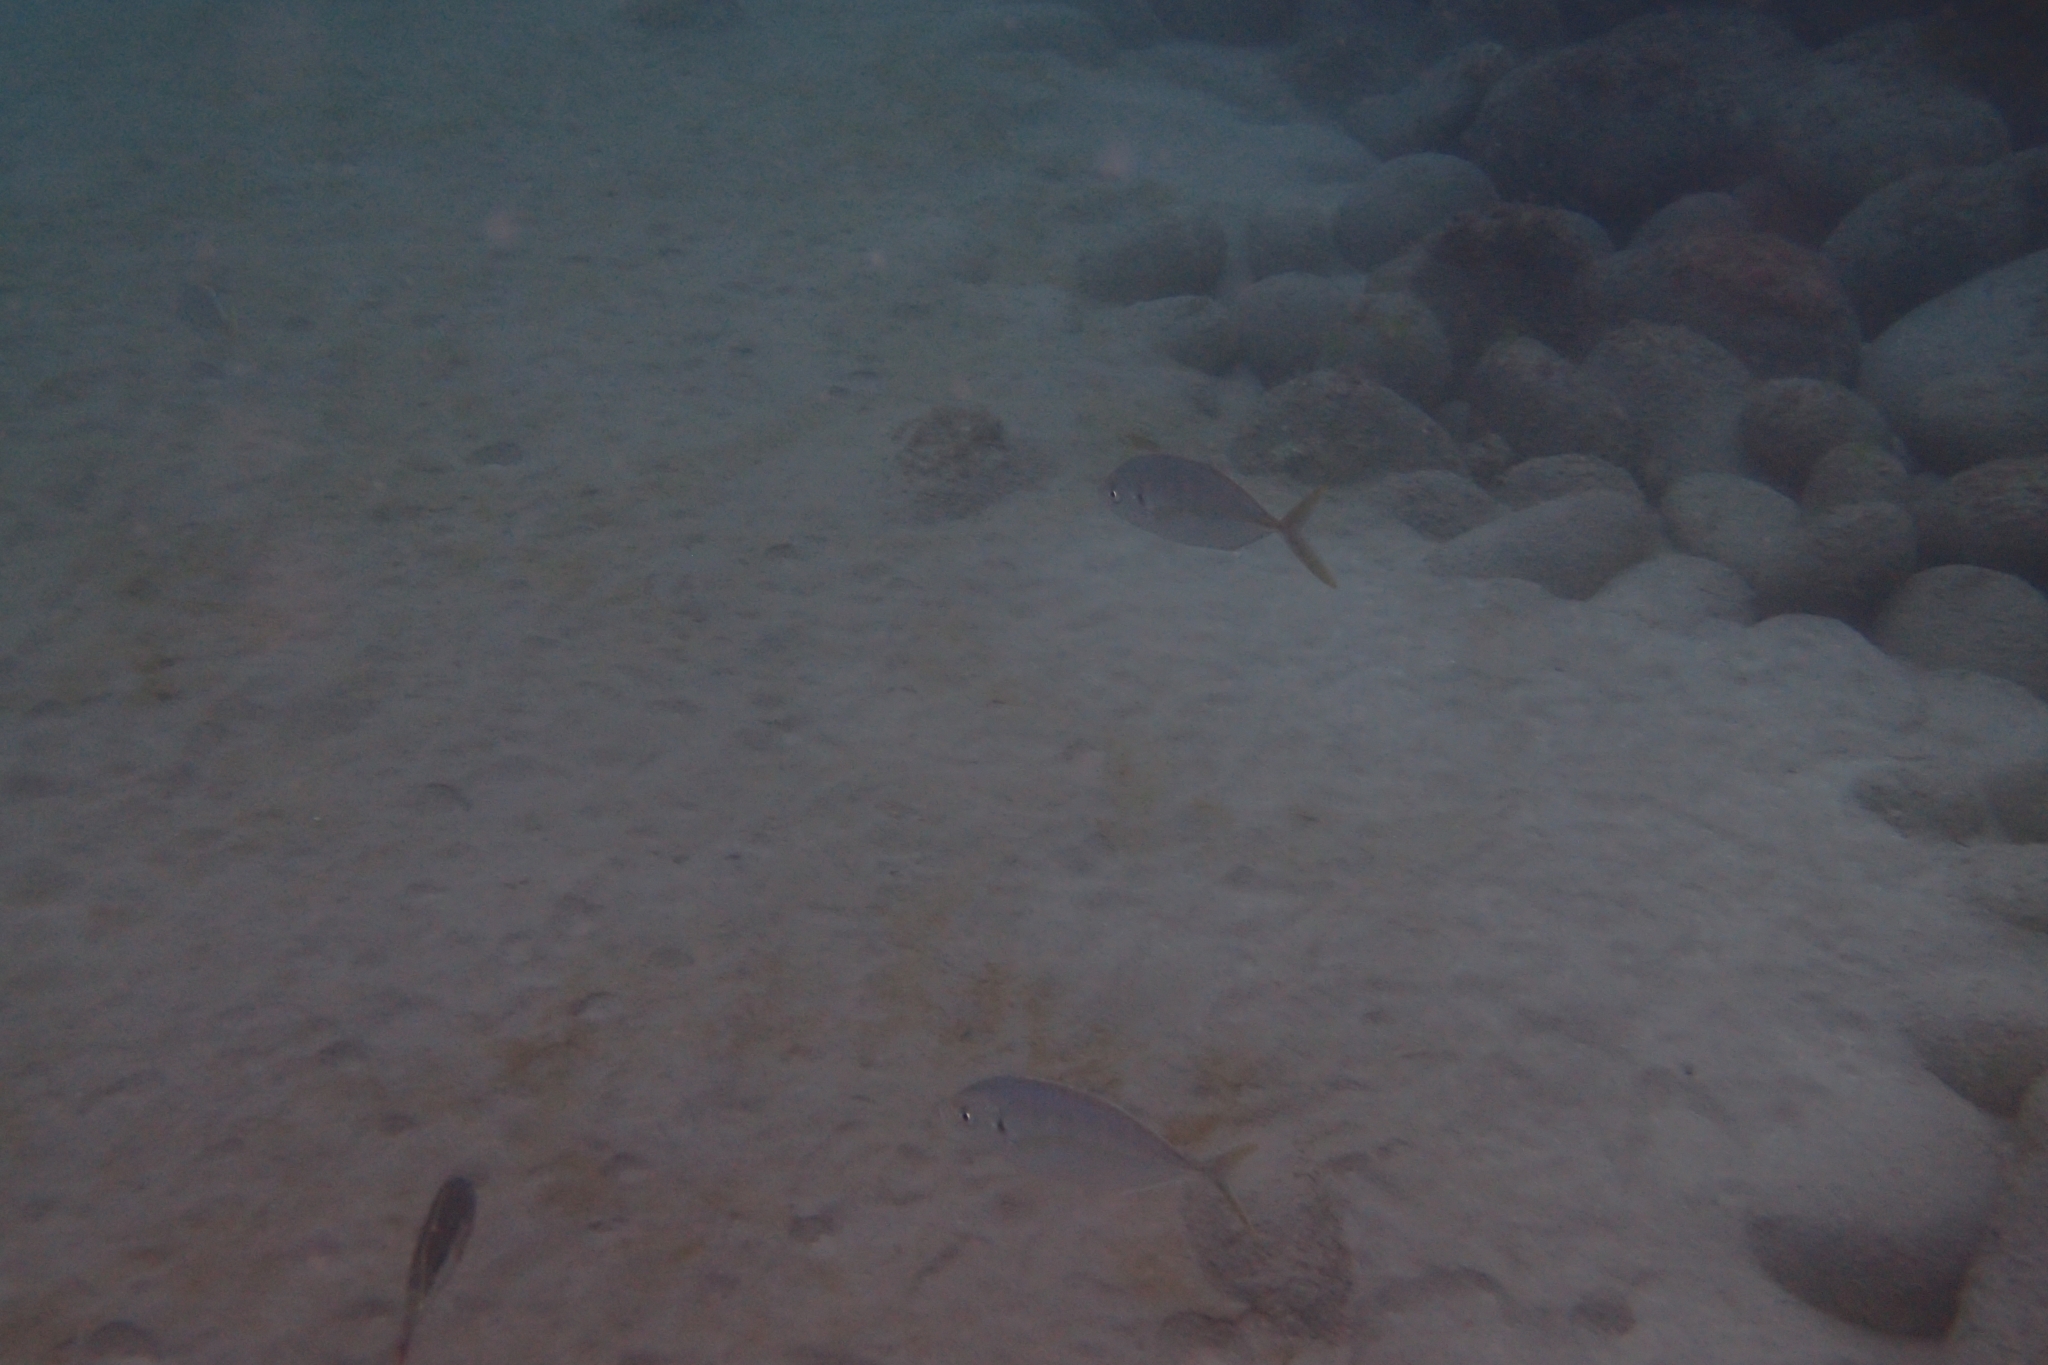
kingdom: Animalia
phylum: Chordata
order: Perciformes
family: Carangidae
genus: Pseudocaranx
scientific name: Pseudocaranx dentex
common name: White trevally
